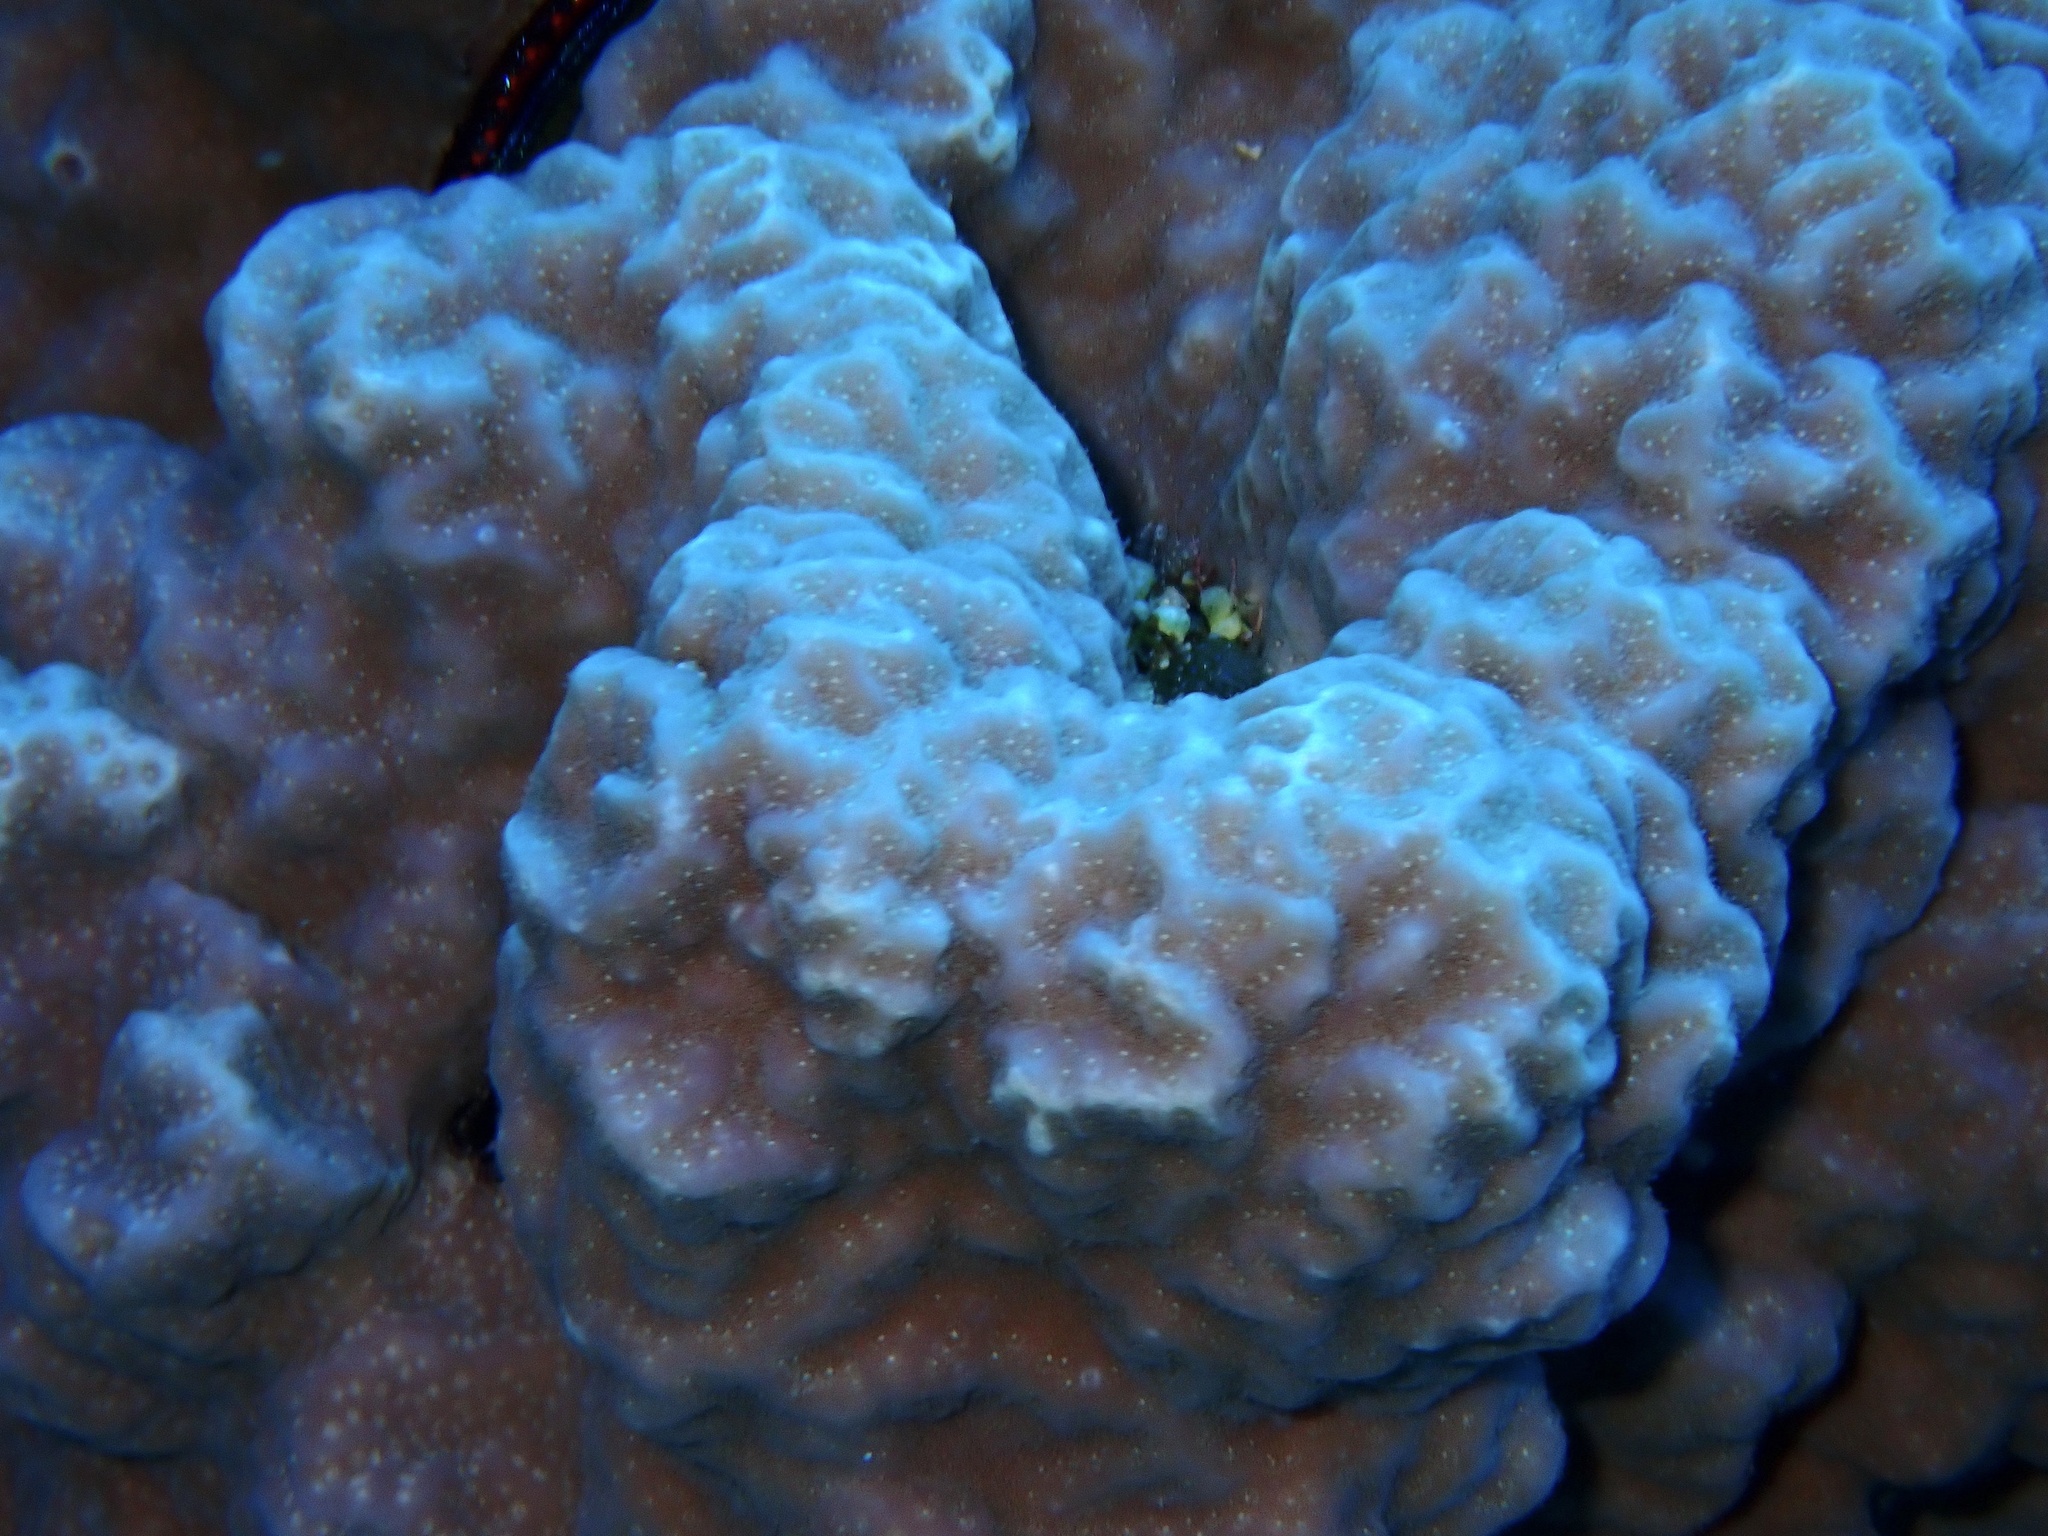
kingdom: Animalia
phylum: Cnidaria
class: Anthozoa
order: Scleractinia
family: Poritidae
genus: Porites
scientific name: Porites rus
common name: Hump coral
